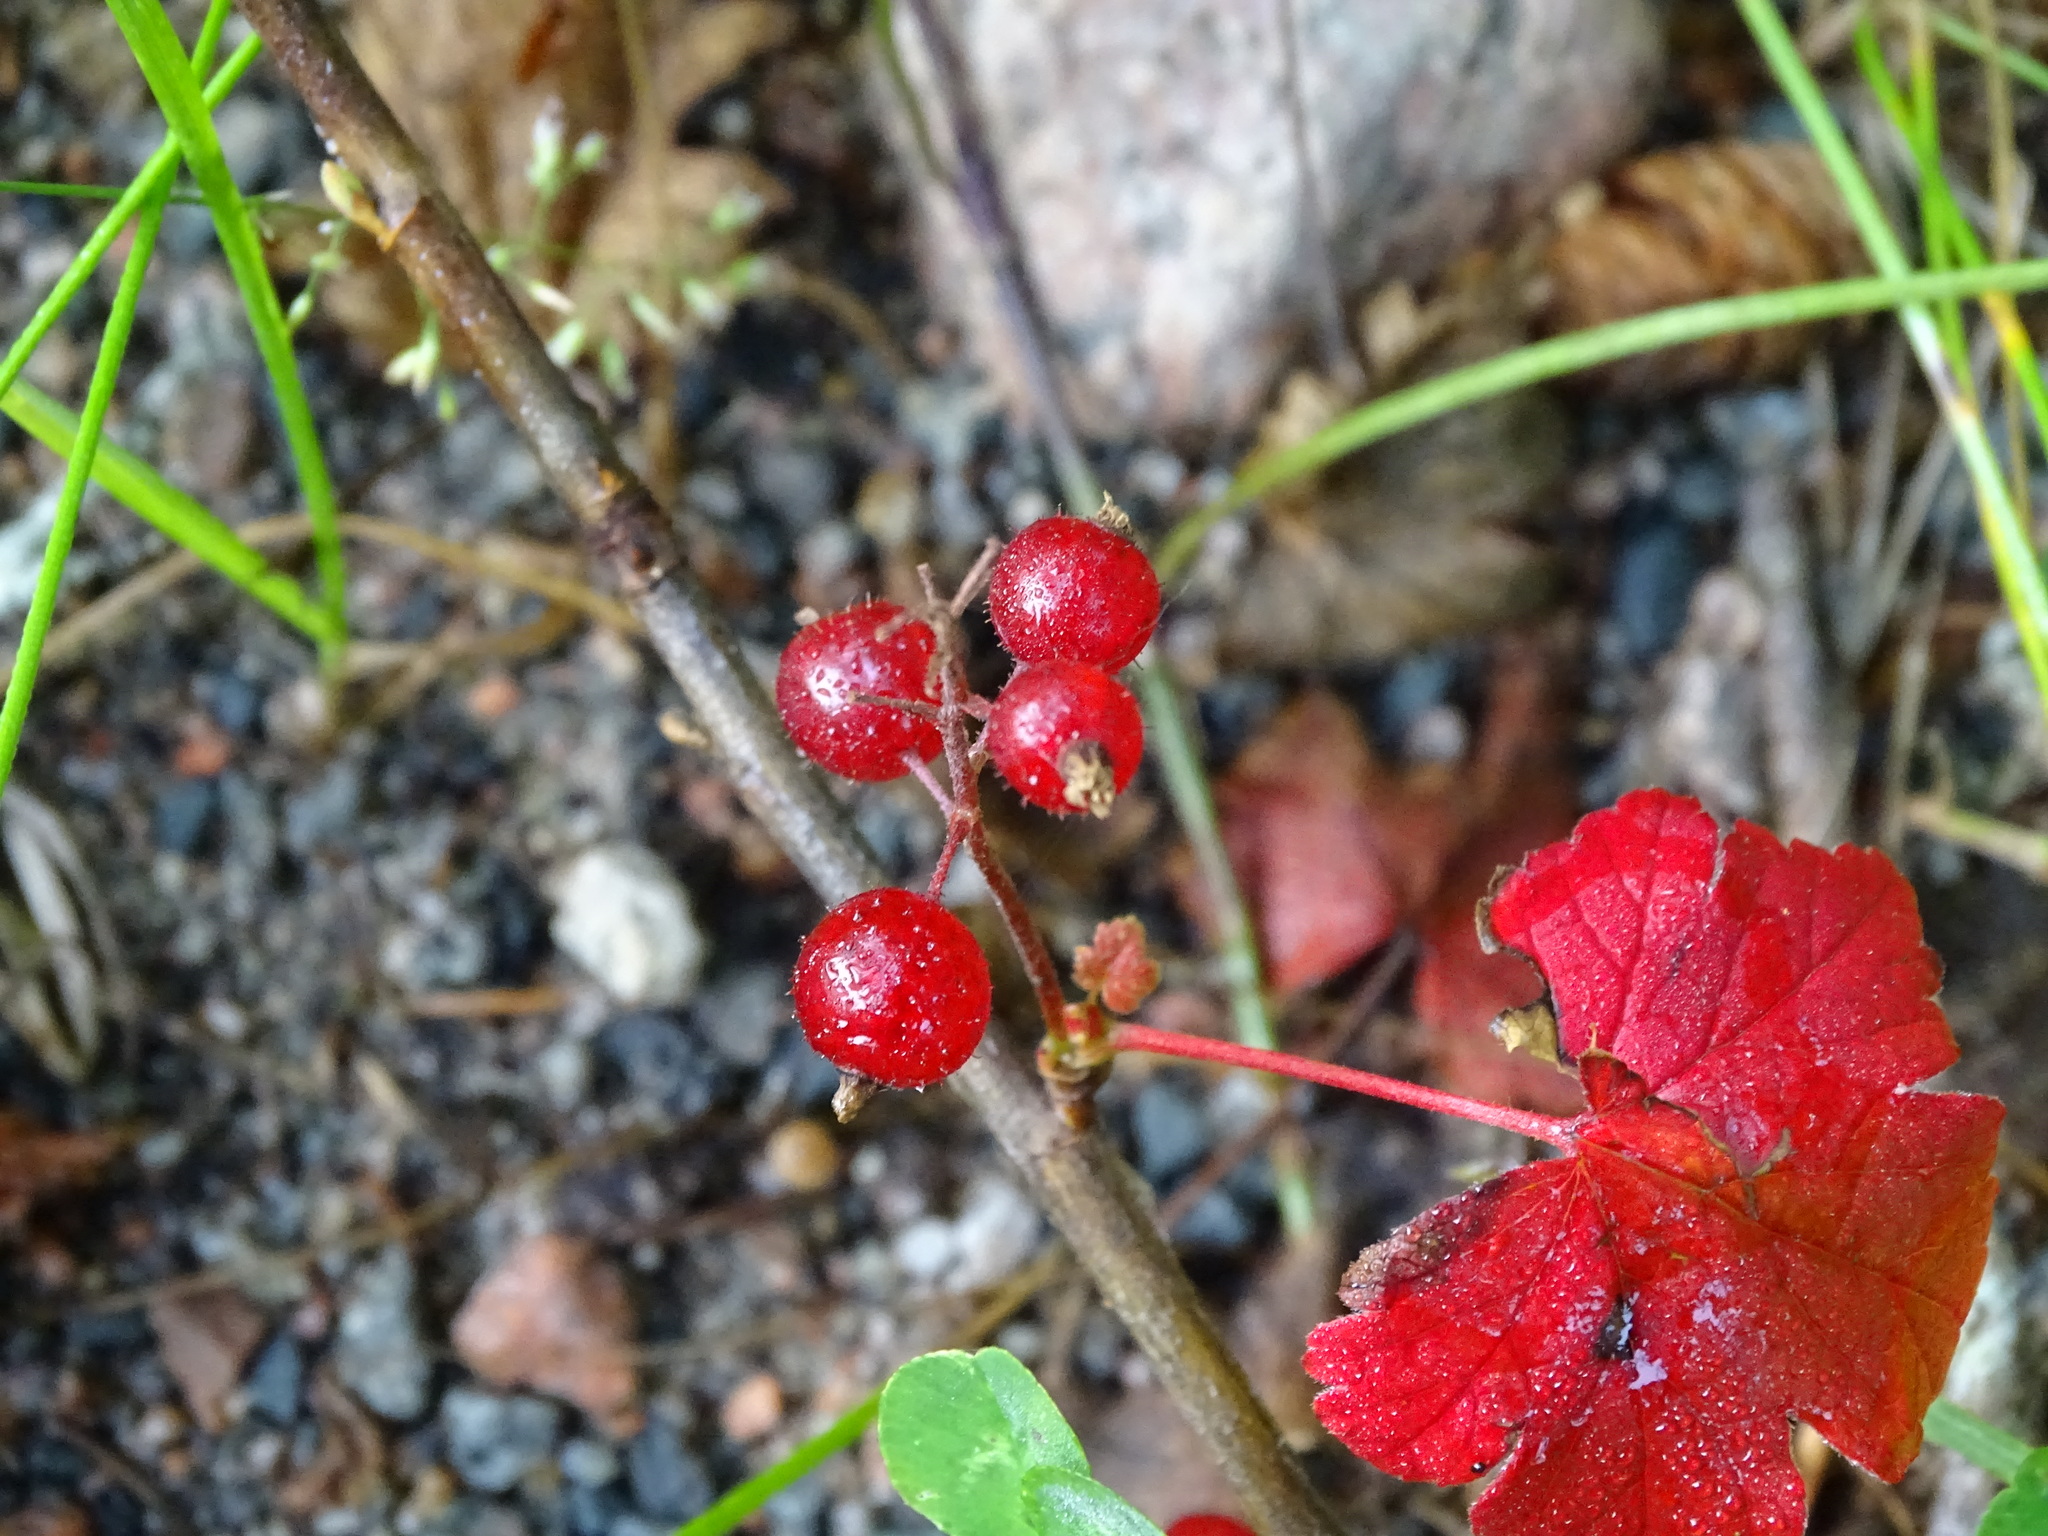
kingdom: Plantae
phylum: Tracheophyta
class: Magnoliopsida
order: Saxifragales
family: Grossulariaceae
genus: Ribes
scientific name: Ribes glandulosum
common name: Skunk currant
